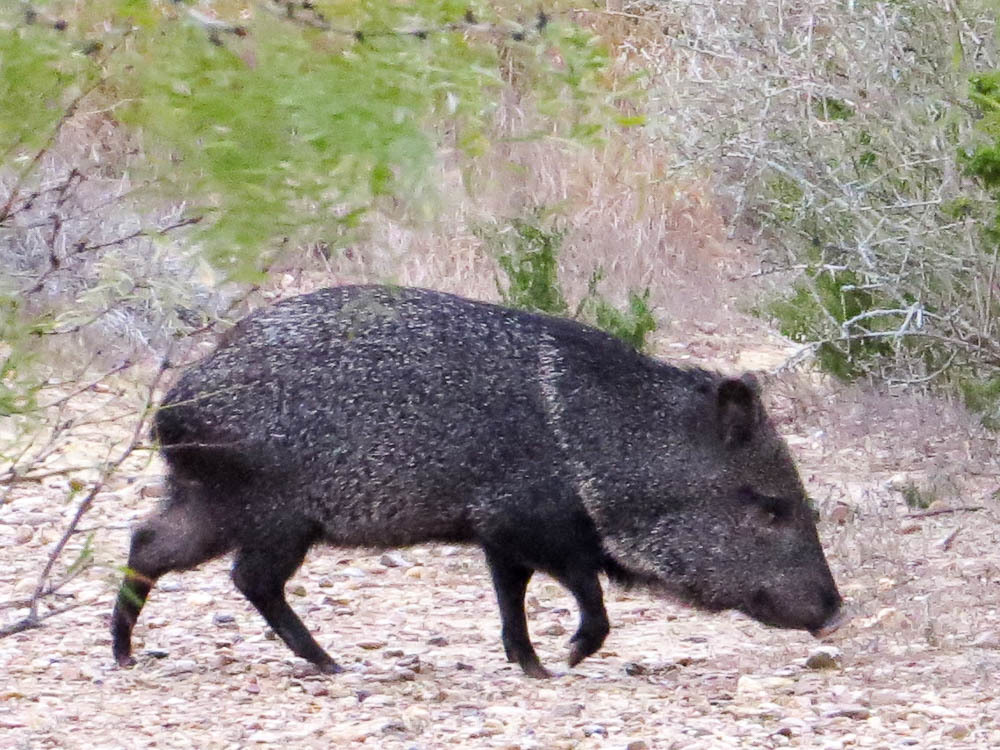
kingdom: Animalia
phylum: Chordata
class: Mammalia
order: Artiodactyla
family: Tayassuidae
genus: Pecari
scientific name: Pecari tajacu
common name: Collared peccary
